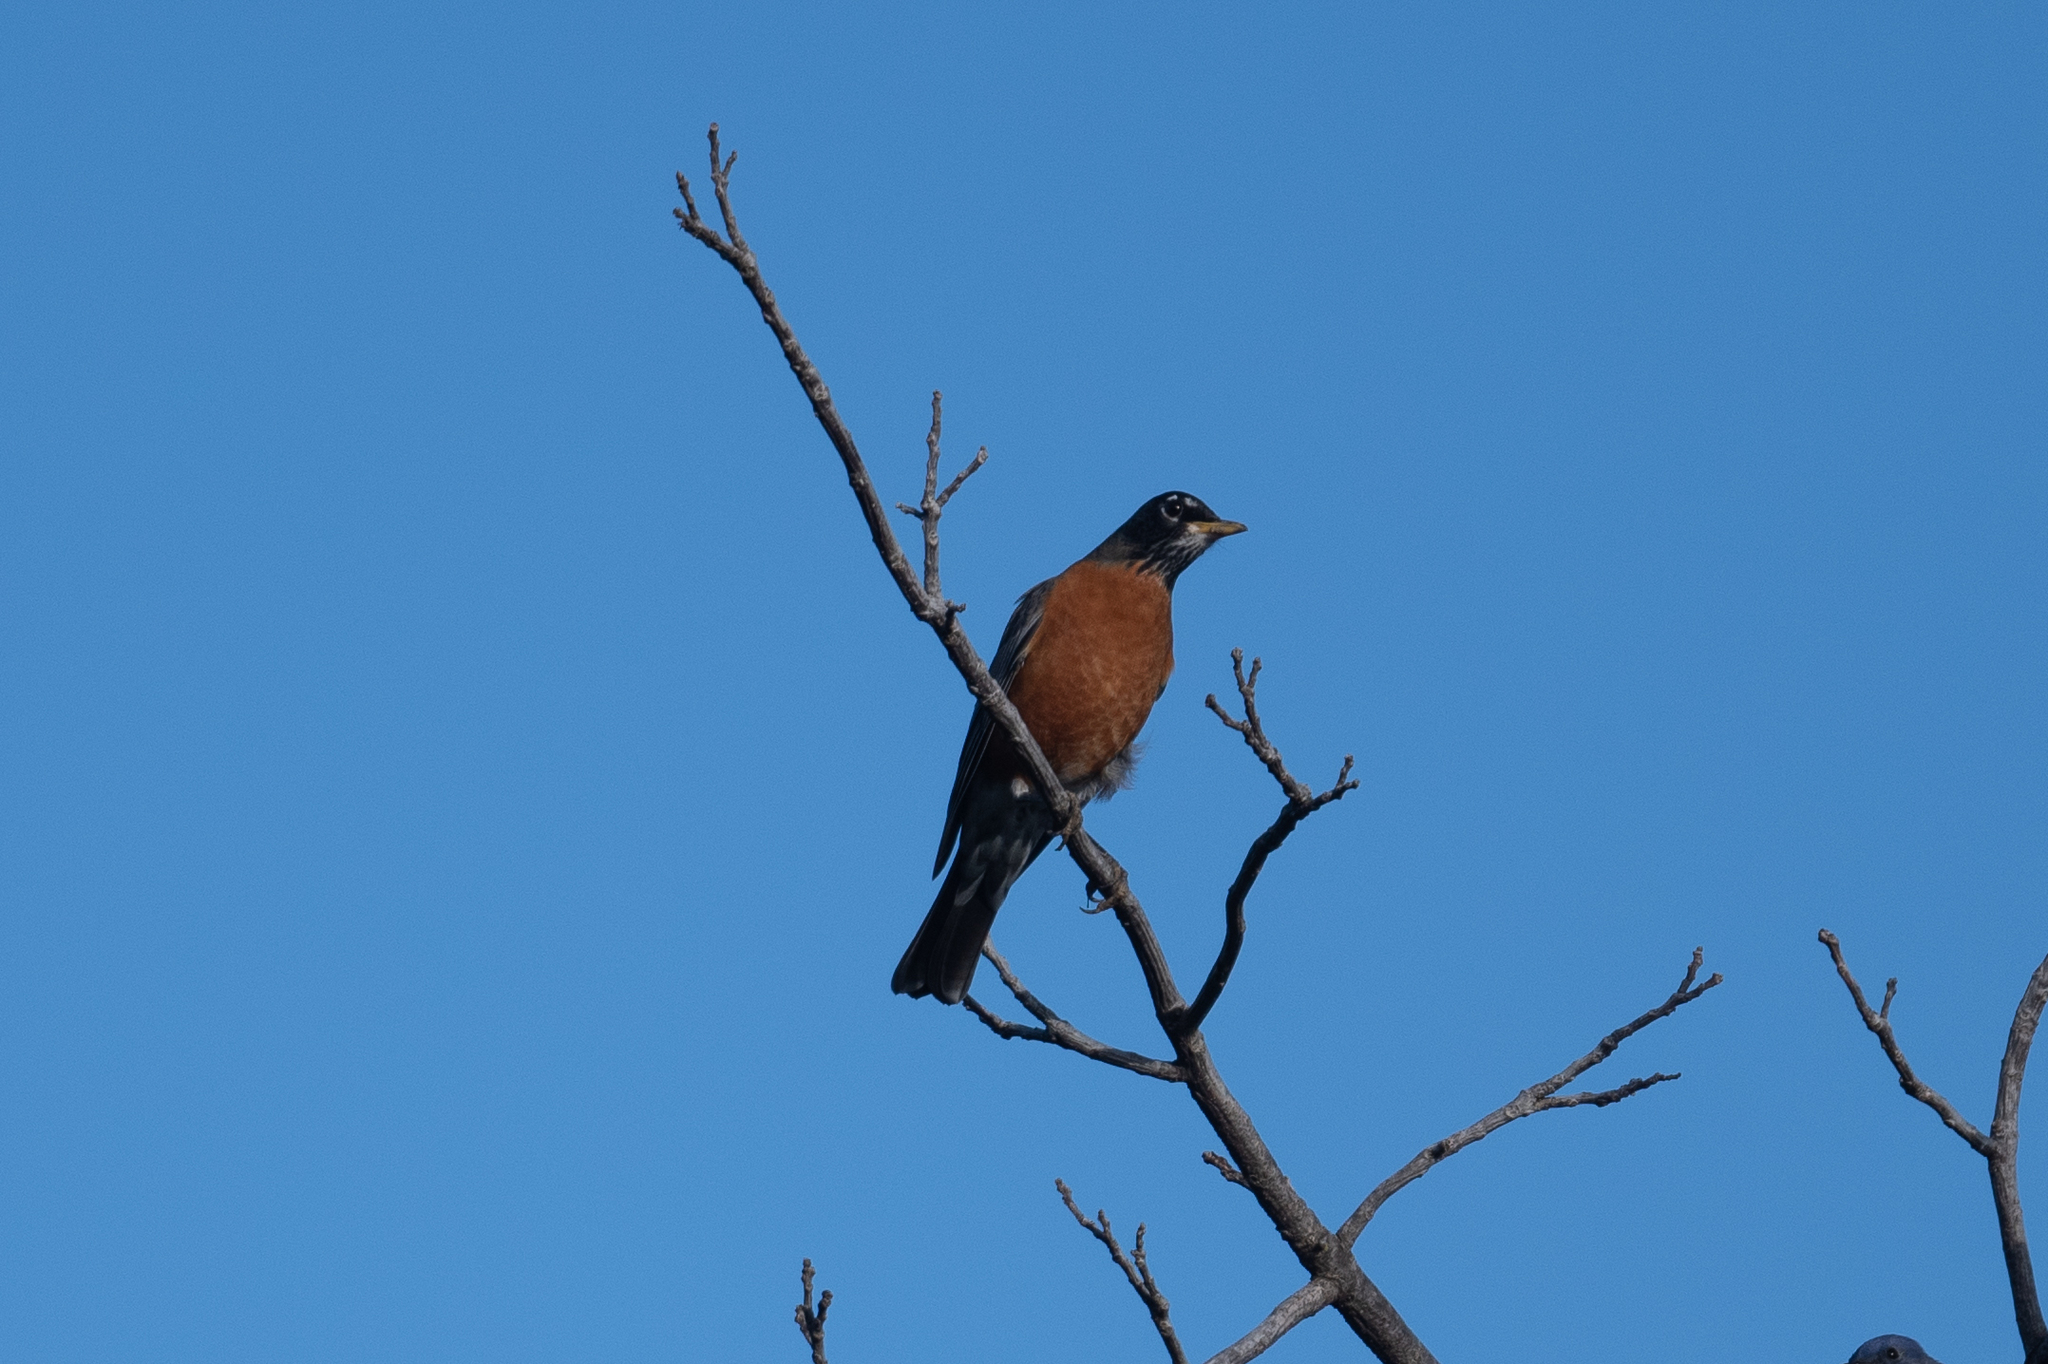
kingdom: Animalia
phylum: Chordata
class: Aves
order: Passeriformes
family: Turdidae
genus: Turdus
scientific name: Turdus migratorius
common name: American robin
